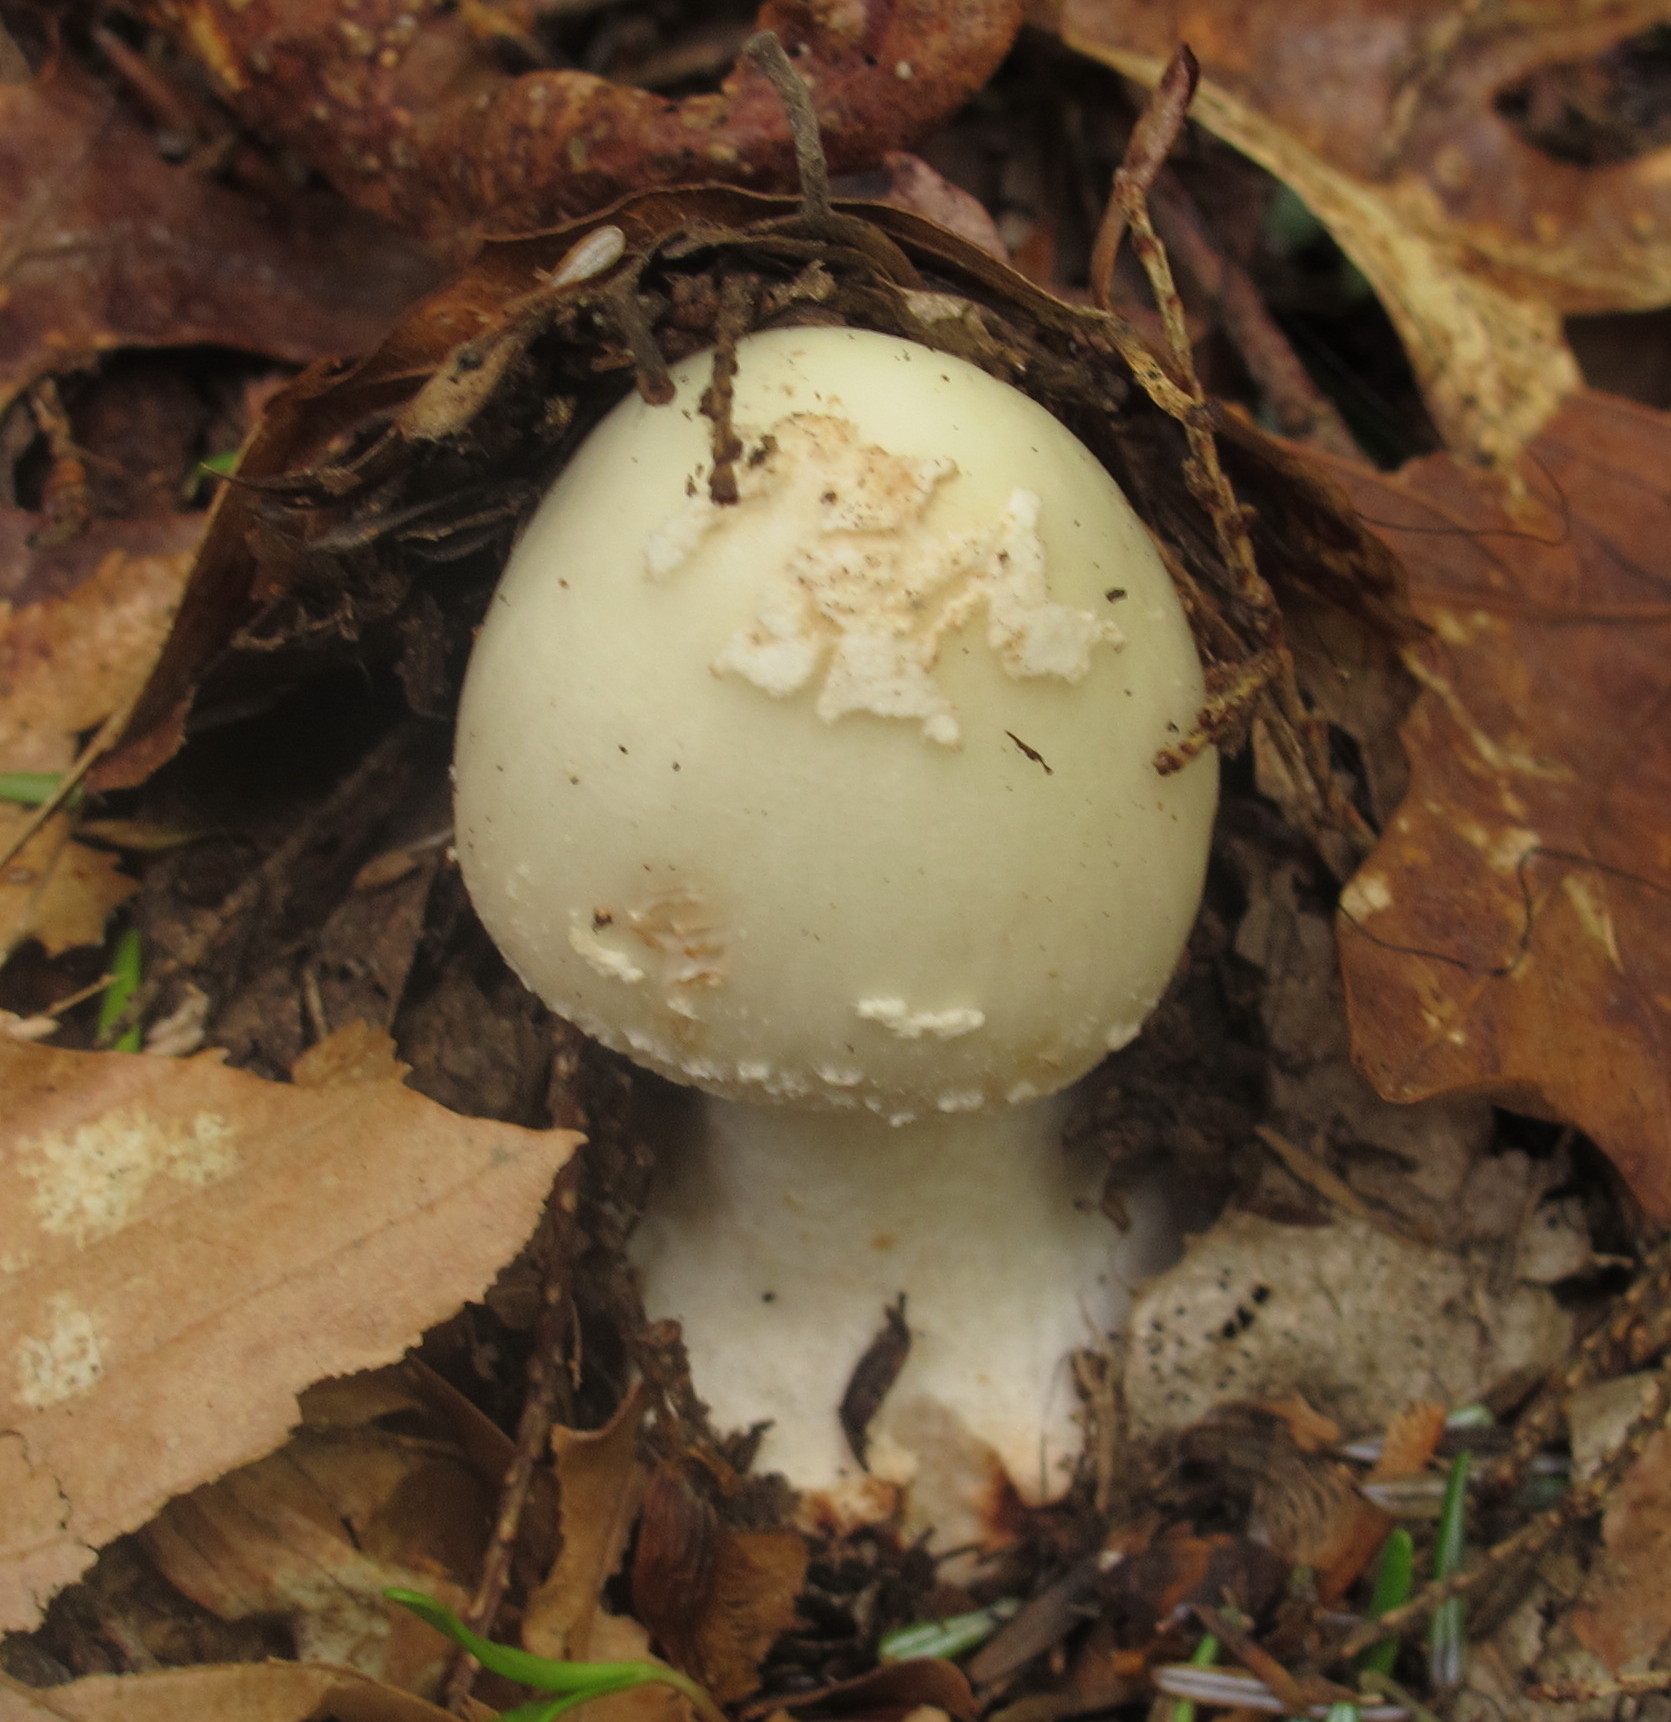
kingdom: Fungi
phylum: Basidiomycota
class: Agaricomycetes
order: Agaricales
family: Amanitaceae
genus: Amanita
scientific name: Amanita brunnescens
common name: Brown american star-footed amanita
